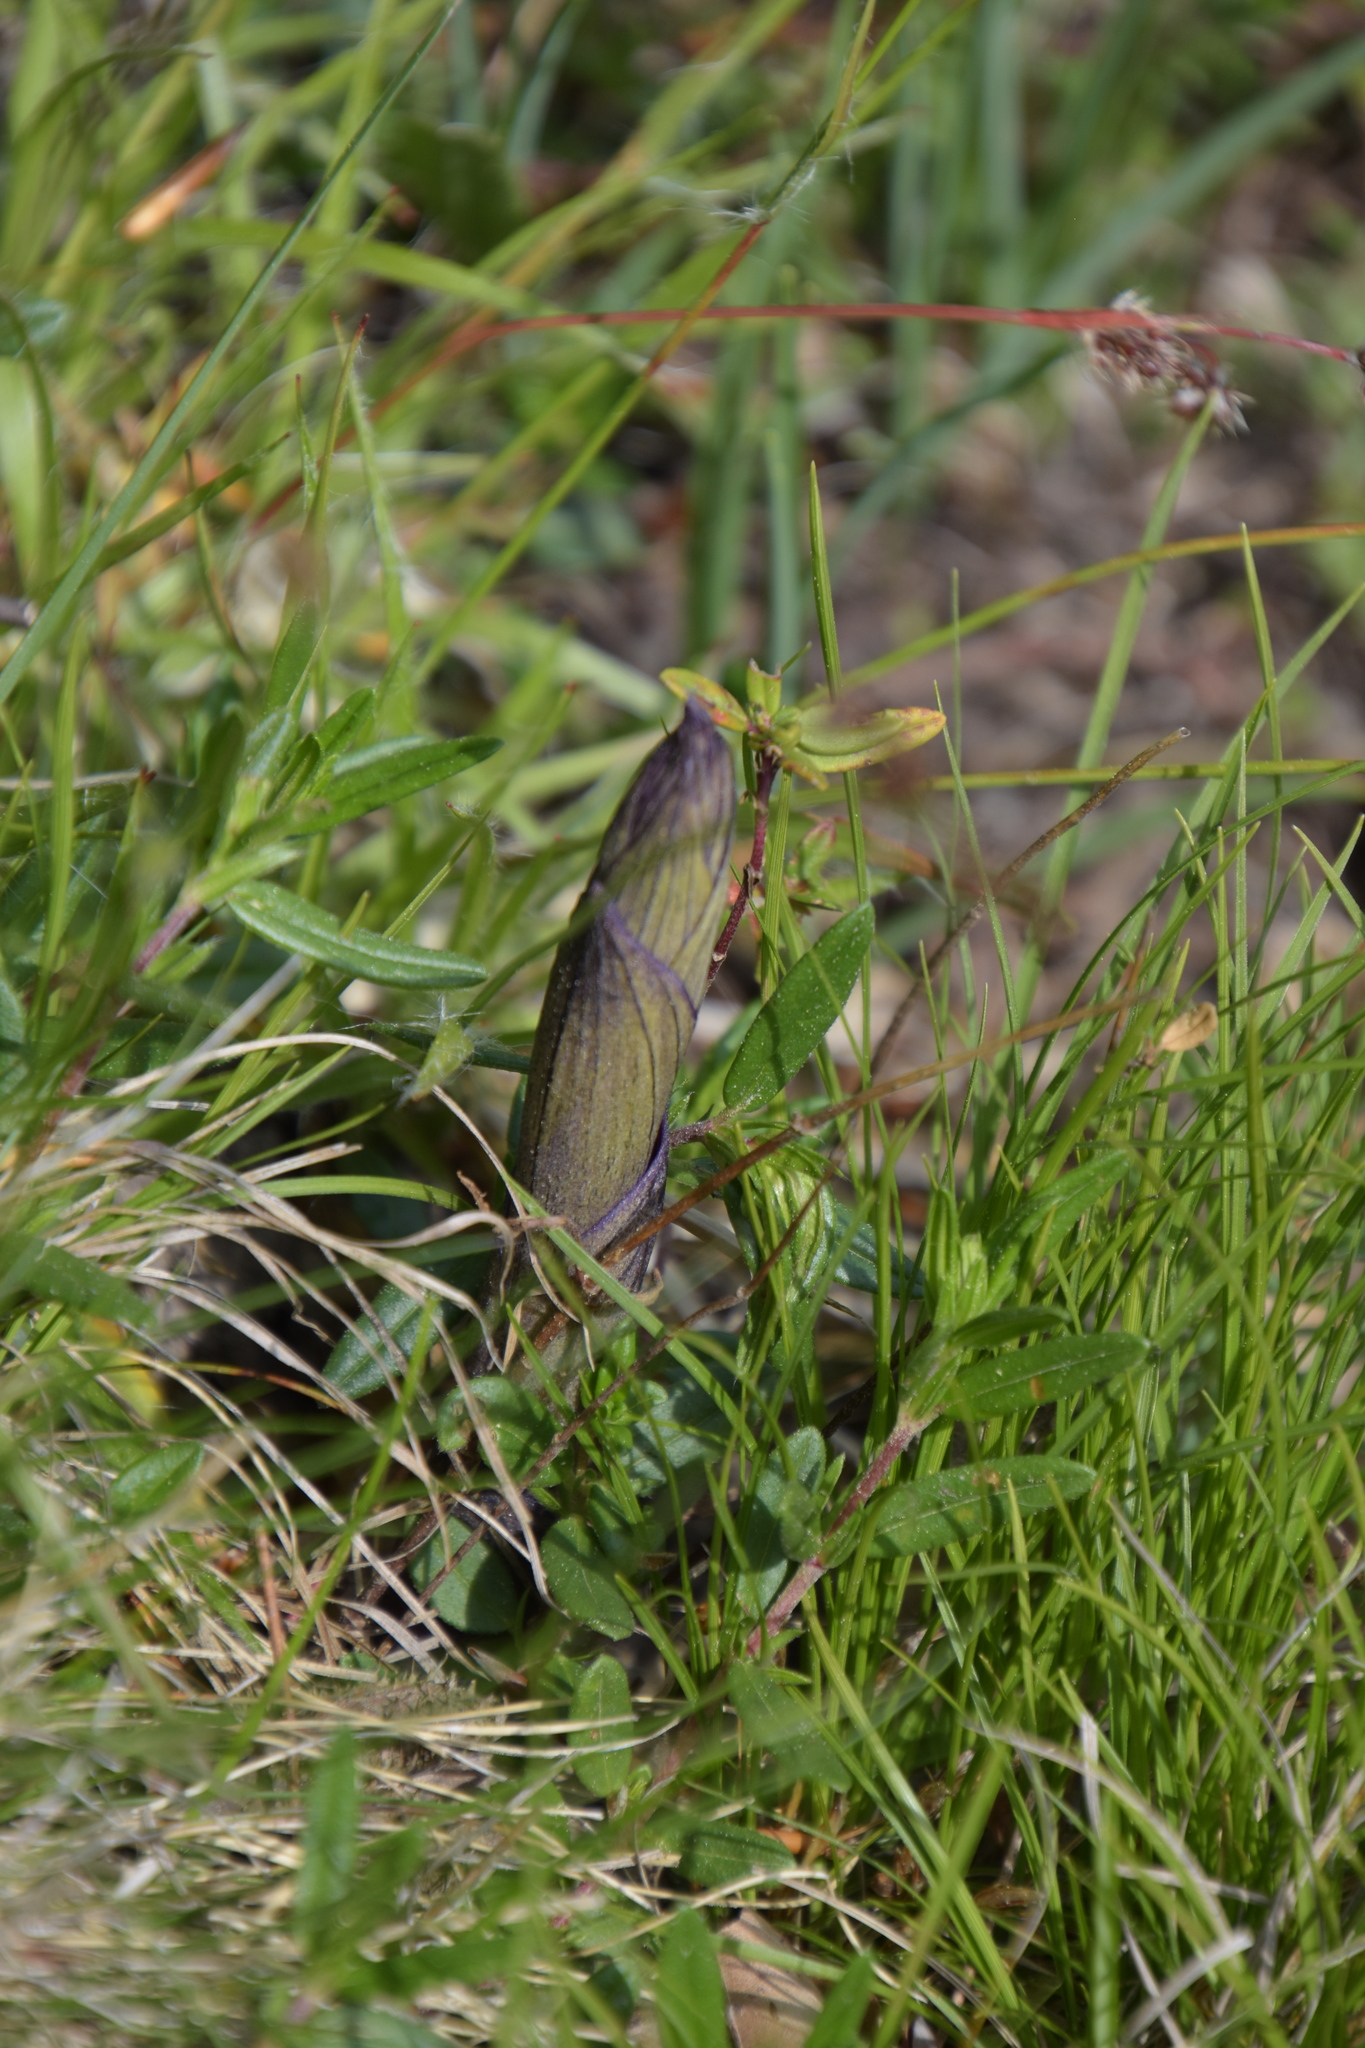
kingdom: Plantae
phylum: Tracheophyta
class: Liliopsida
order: Asparagales
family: Orchidaceae
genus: Limodorum
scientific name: Limodorum abortivum
